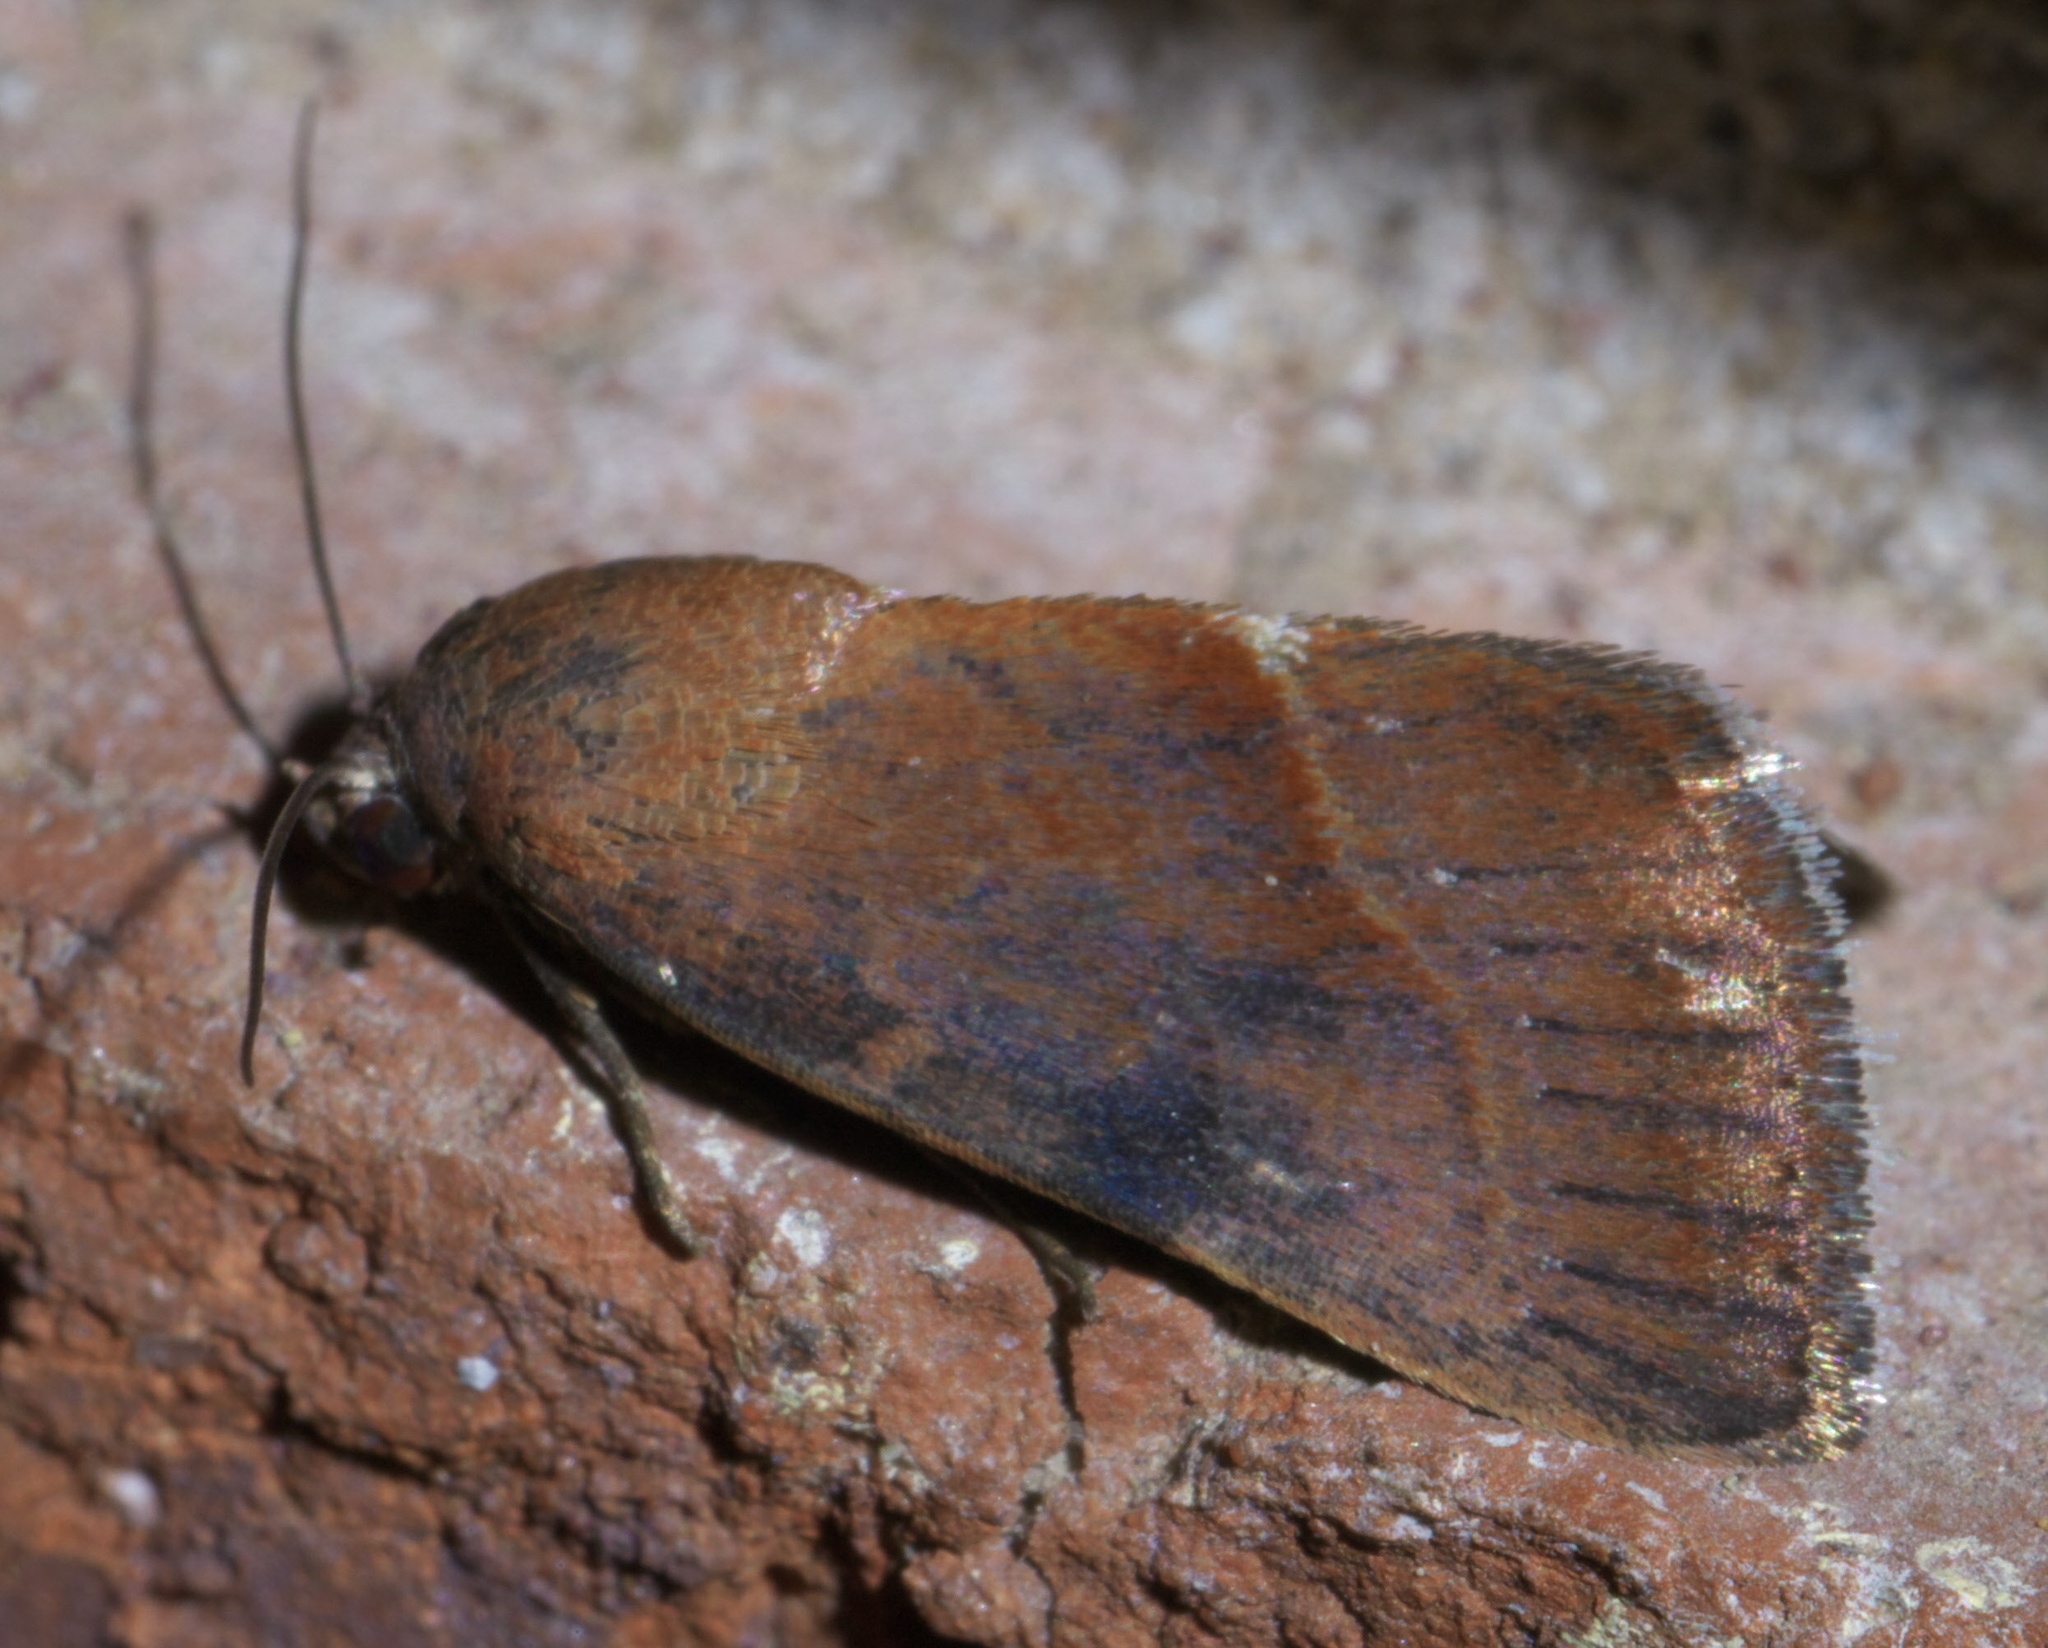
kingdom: Animalia
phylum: Arthropoda
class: Insecta
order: Lepidoptera
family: Noctuidae
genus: Galgula
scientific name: Galgula partita
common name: Wedgeling
